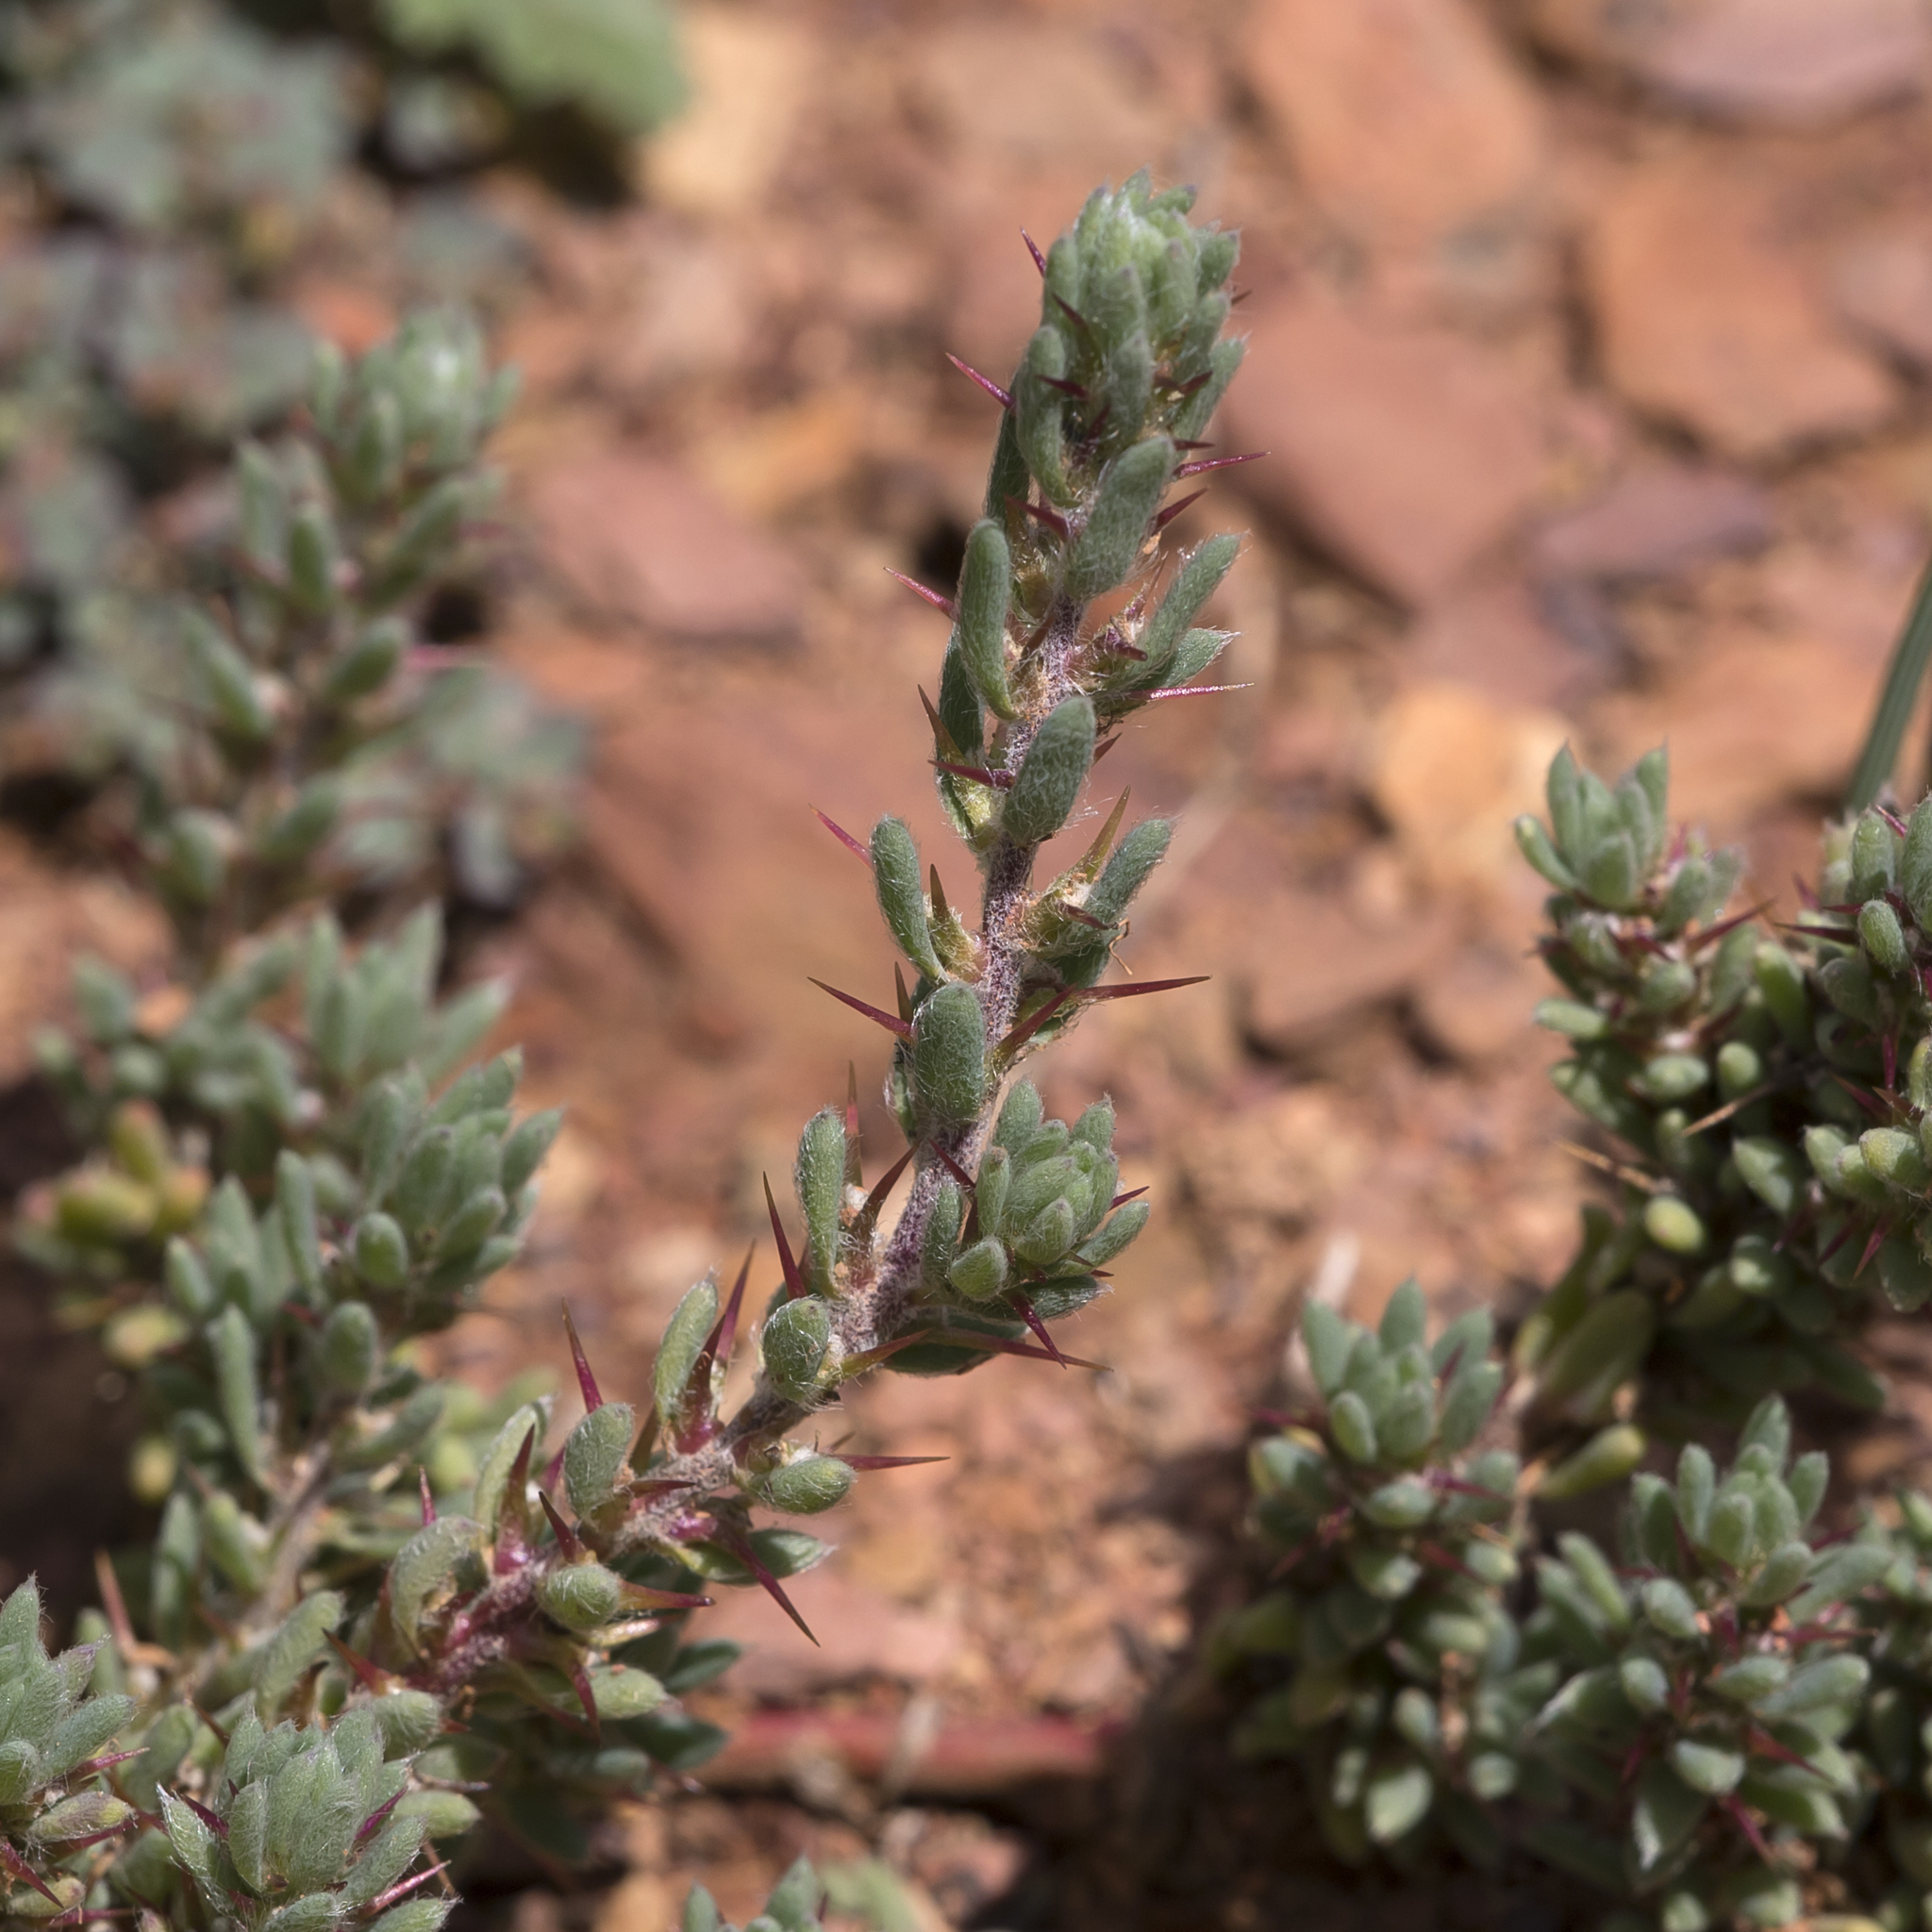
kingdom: Plantae
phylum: Tracheophyta
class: Magnoliopsida
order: Caryophyllales
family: Amaranthaceae
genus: Sclerolaena
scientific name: Sclerolaena obliquicuspis
